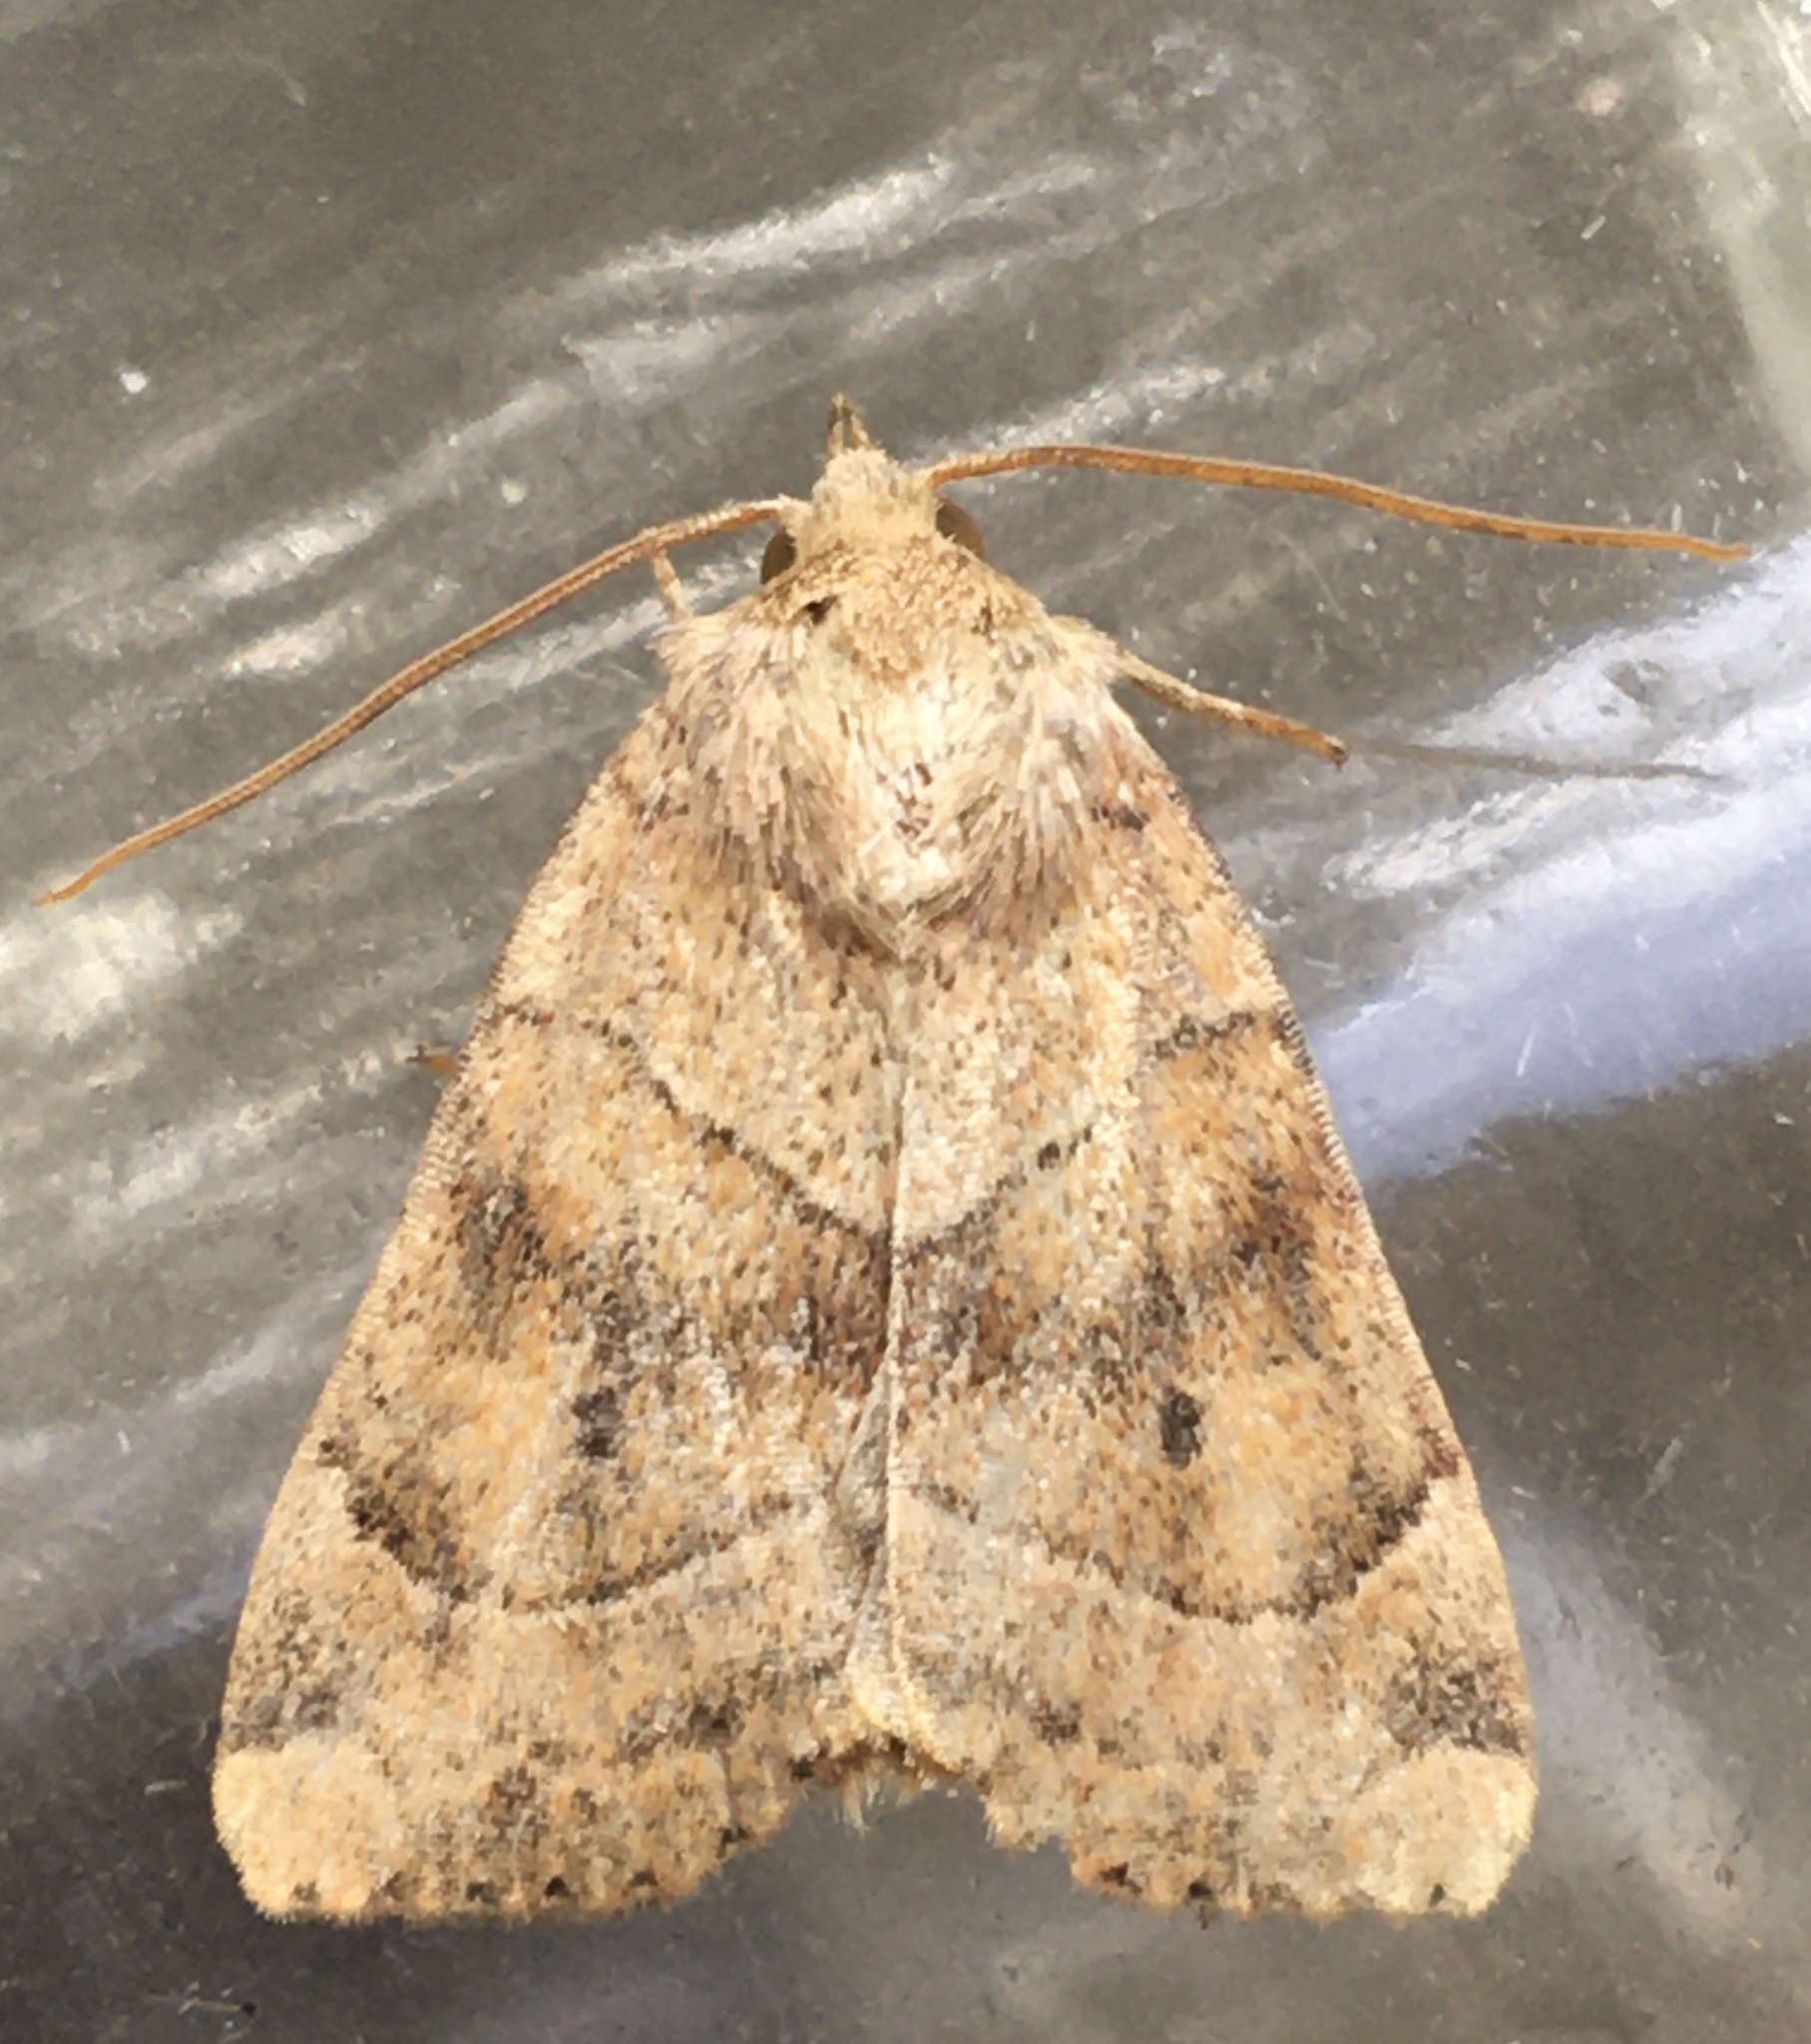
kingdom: Animalia
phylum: Arthropoda
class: Insecta
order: Lepidoptera
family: Noctuidae
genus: Cosmia
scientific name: Cosmia trapezina
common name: Dun-bar
